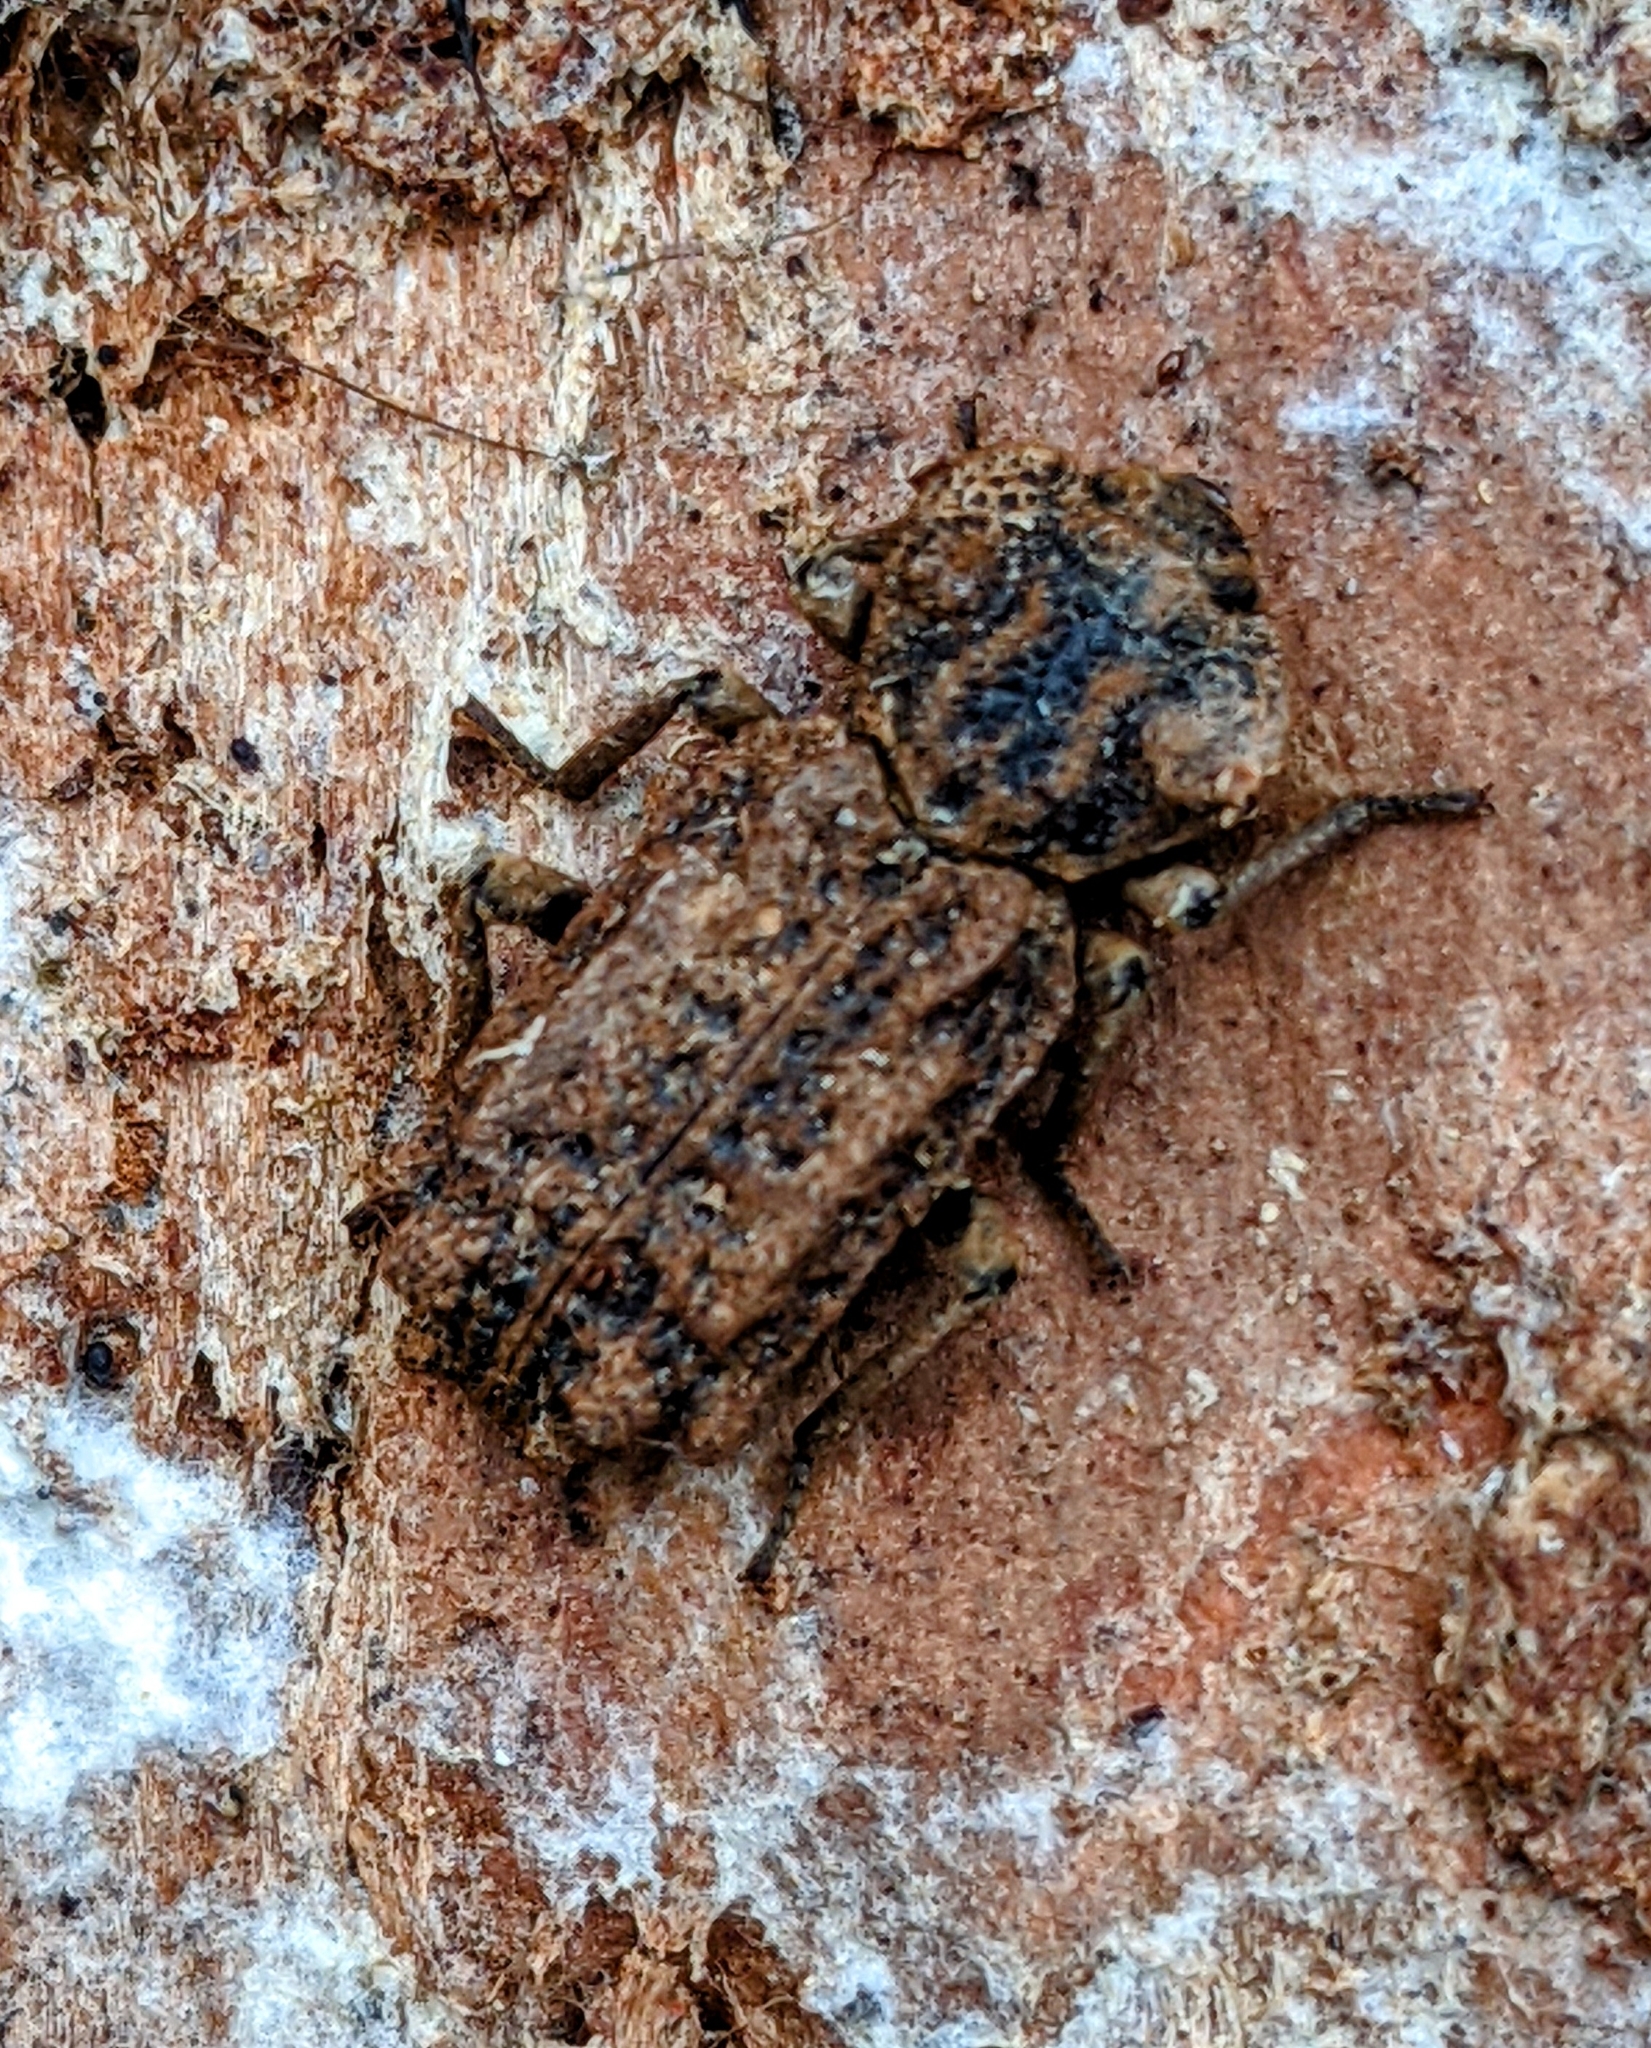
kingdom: Animalia
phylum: Arthropoda
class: Insecta
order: Coleoptera
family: Zopheridae
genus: Phellopsis
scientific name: Phellopsis obcordata
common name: Eastern ironclad beetle
